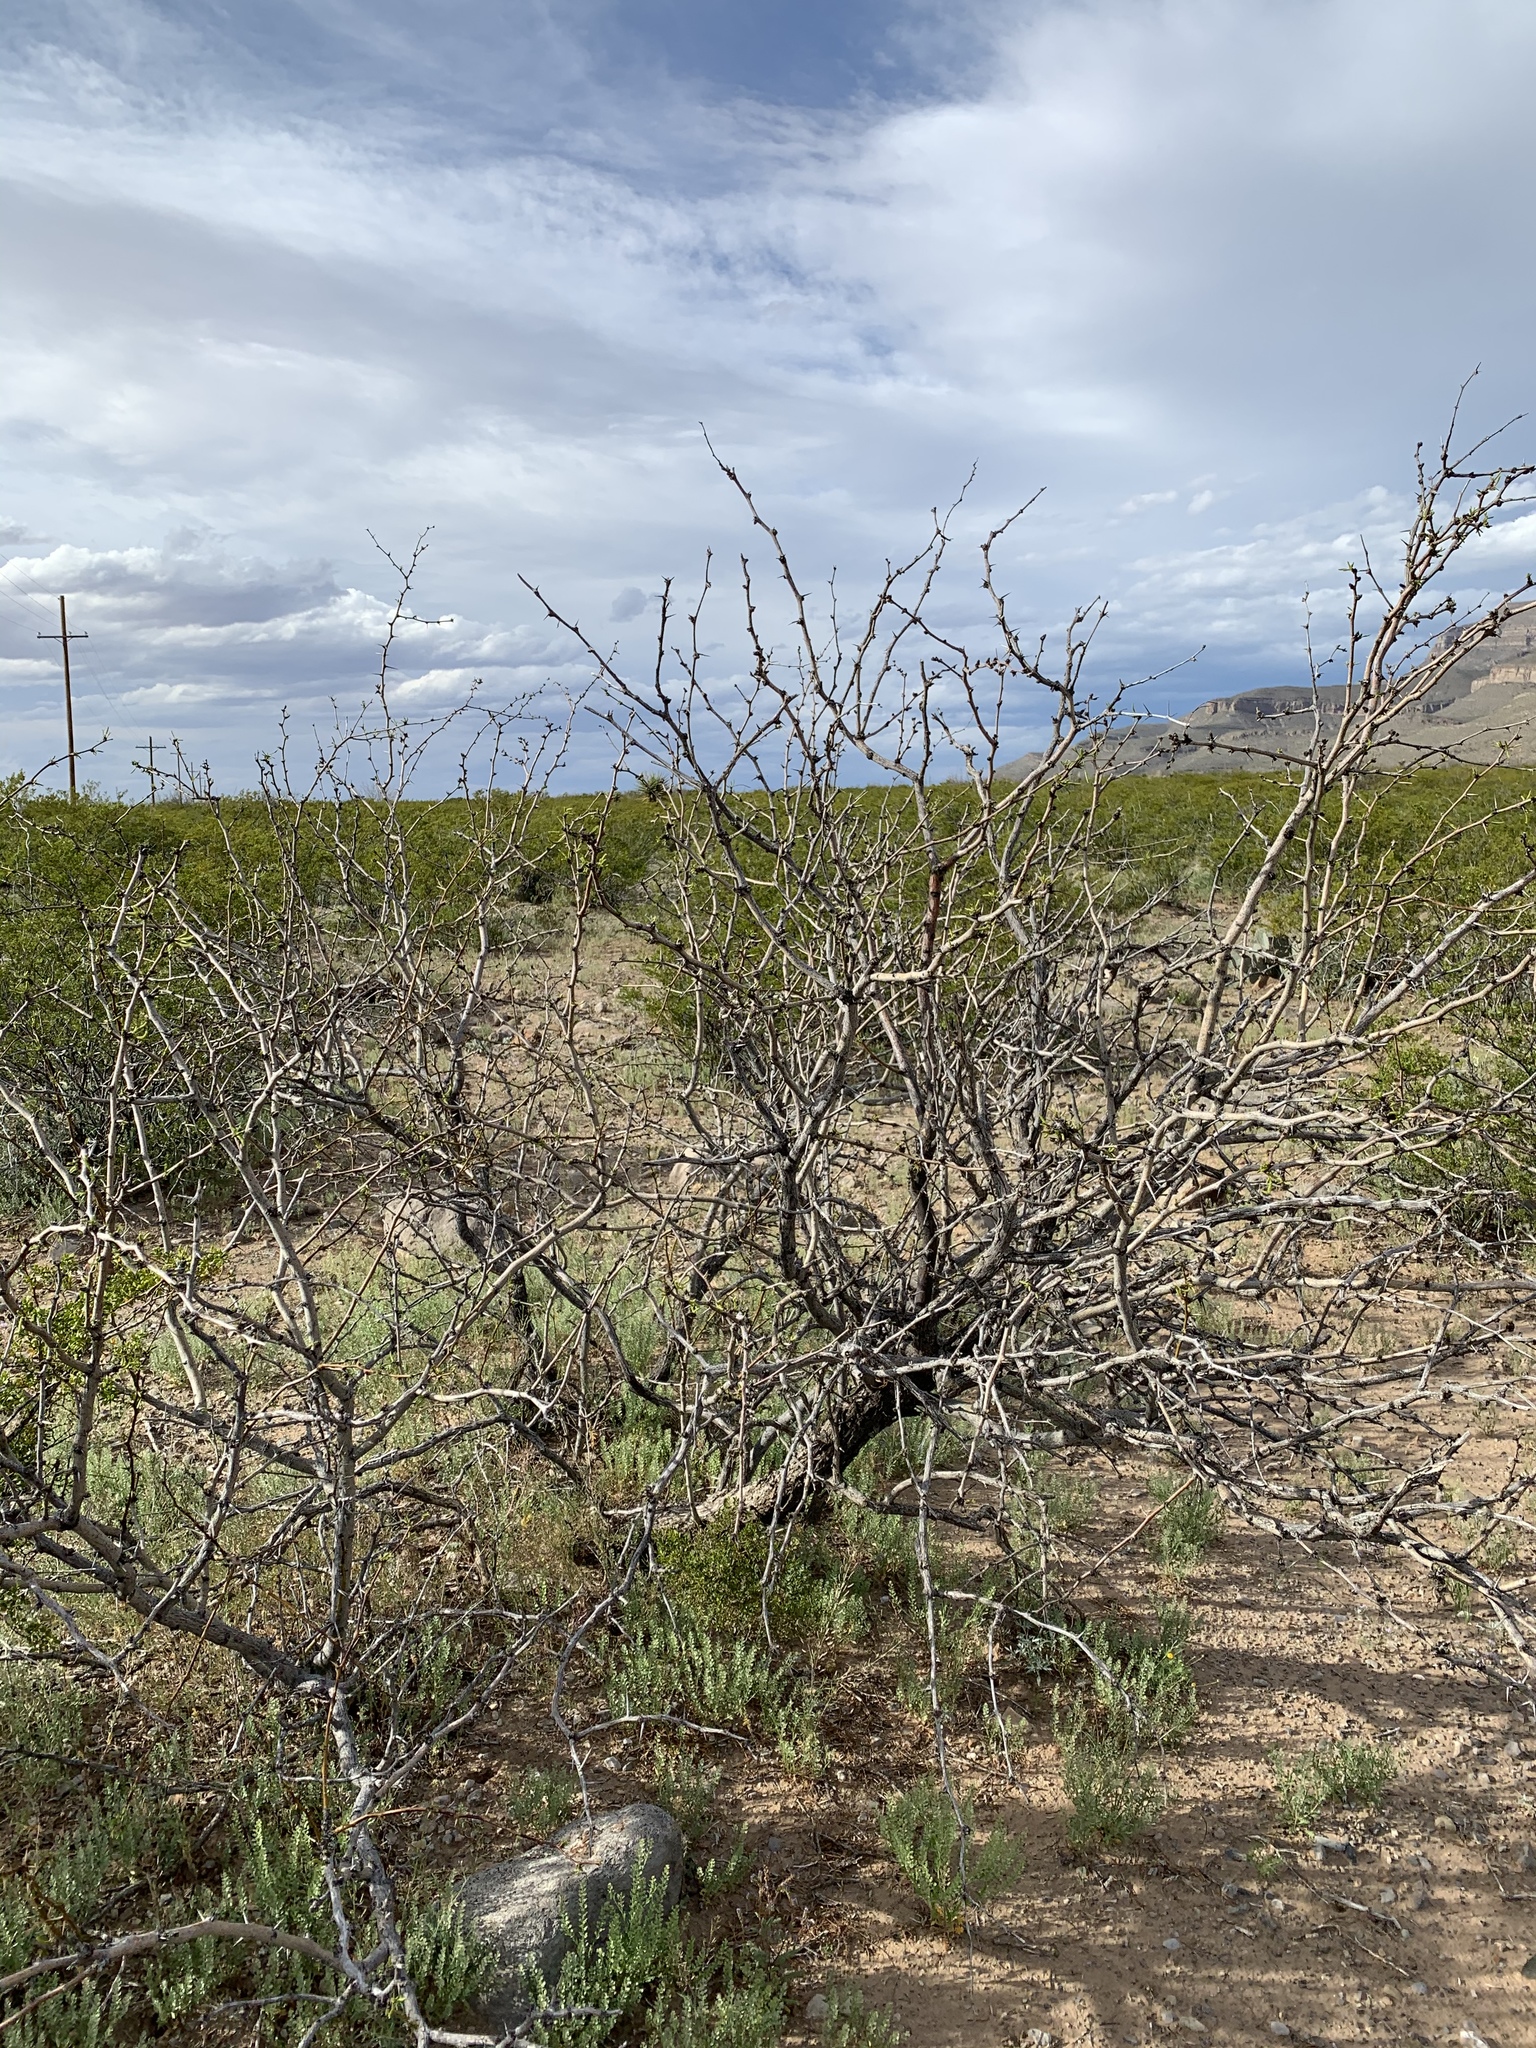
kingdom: Plantae
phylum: Tracheophyta
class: Magnoliopsida
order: Fabales
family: Fabaceae
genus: Prosopis
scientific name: Prosopis glandulosa
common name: Honey mesquite
